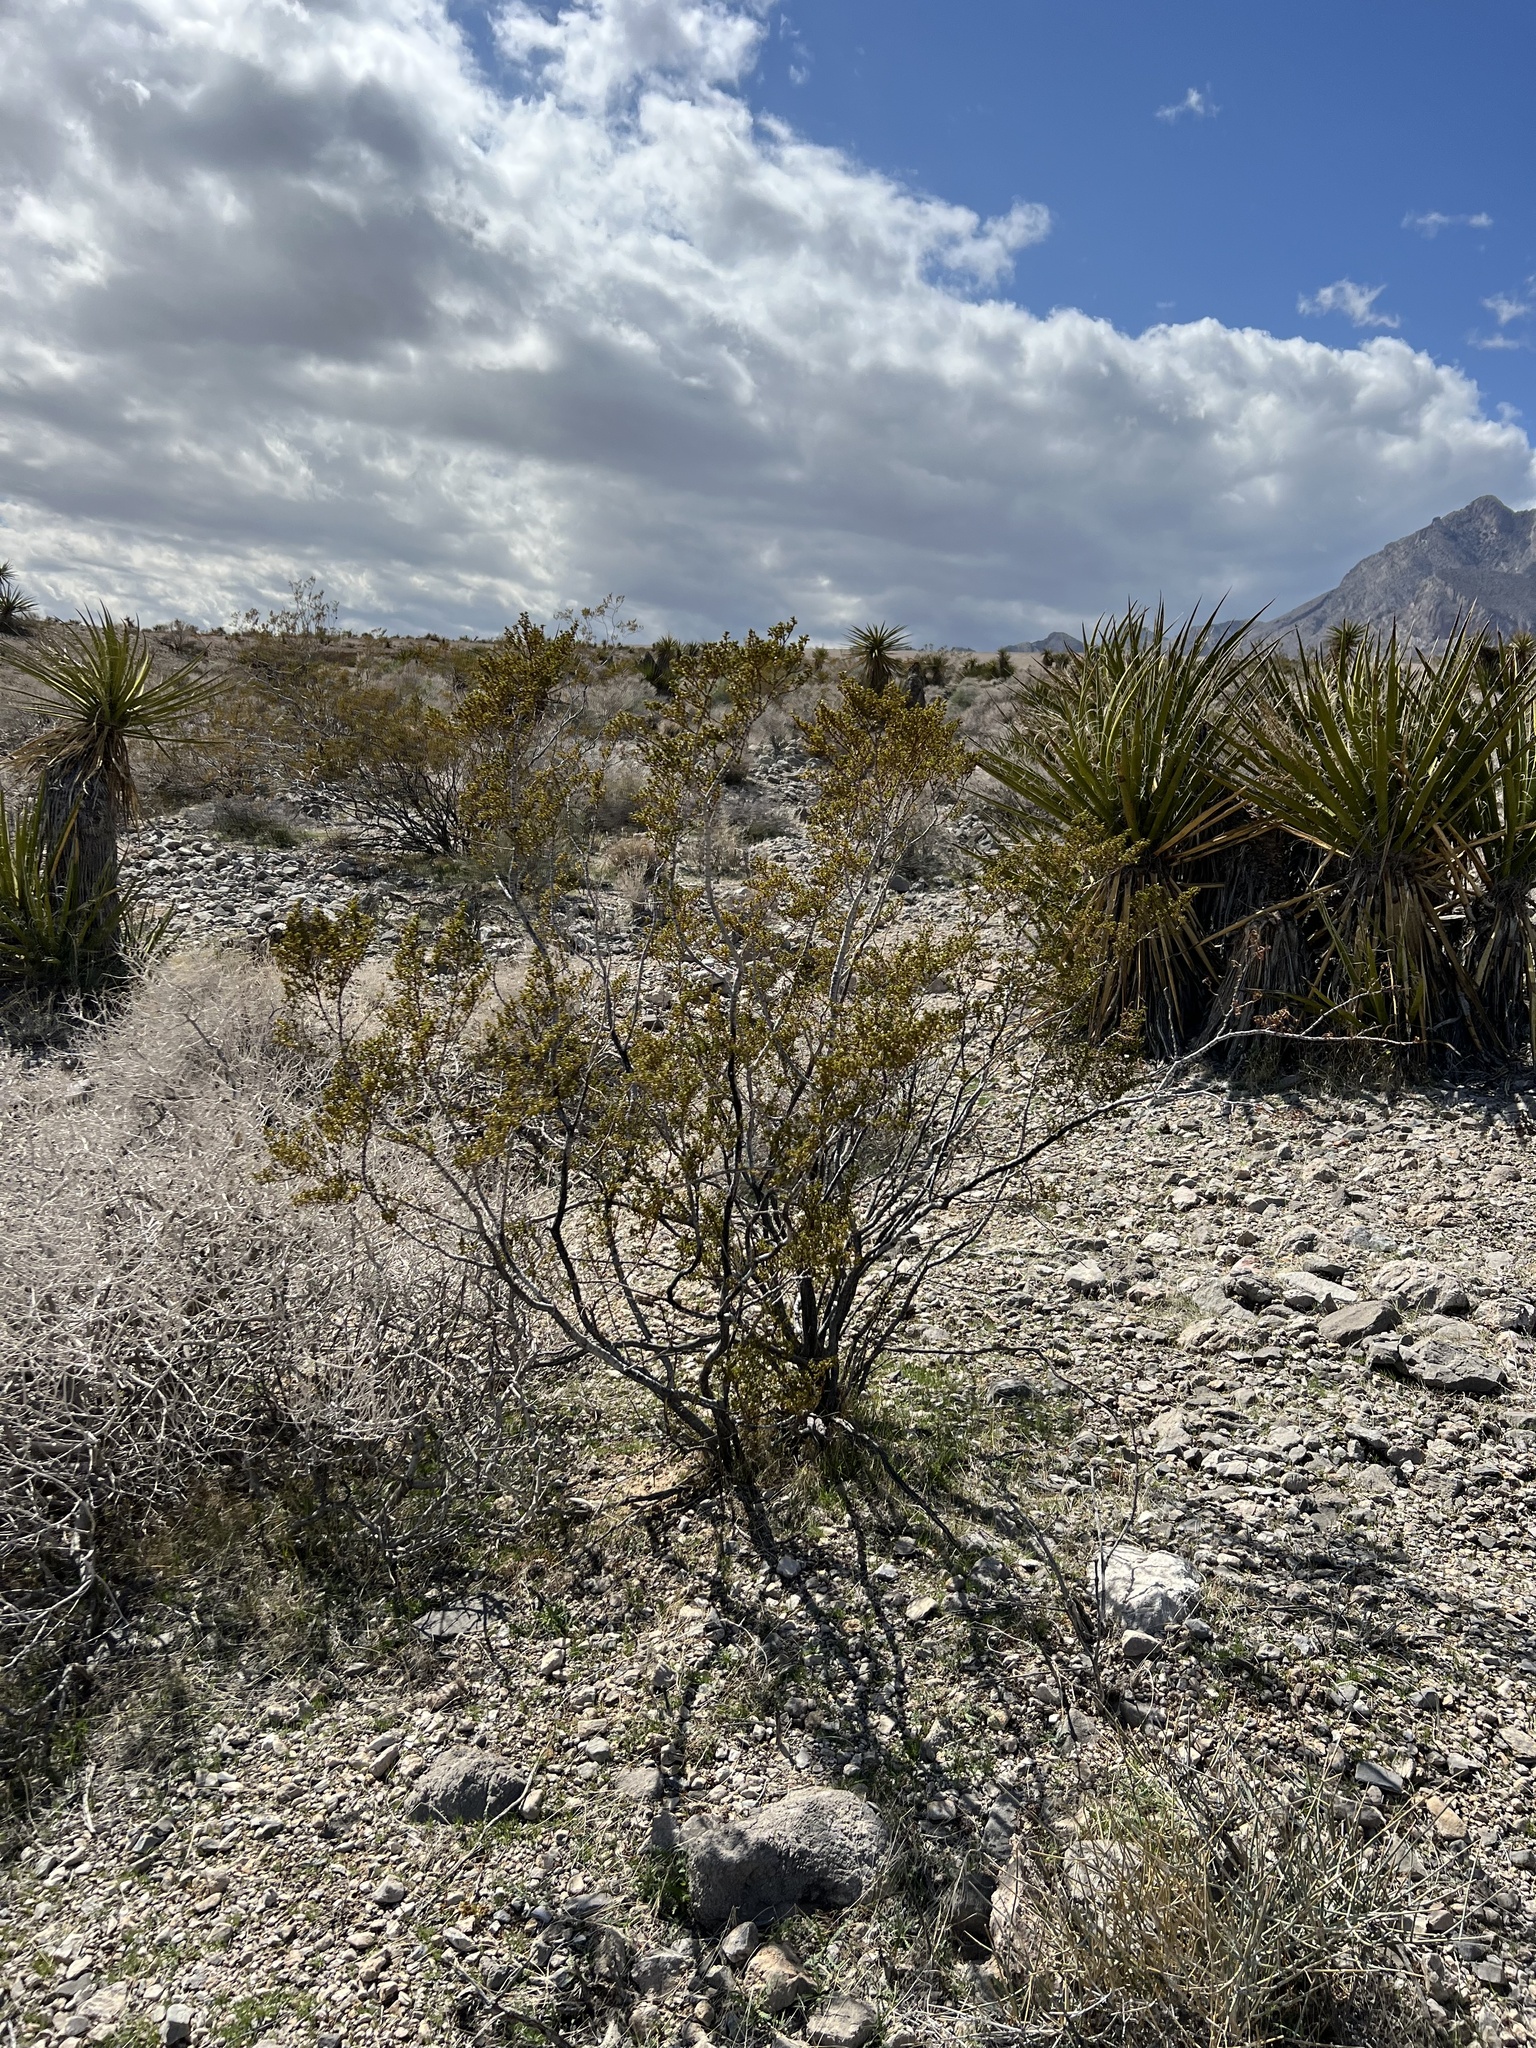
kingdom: Plantae
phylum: Tracheophyta
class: Magnoliopsida
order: Zygophyllales
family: Zygophyllaceae
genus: Larrea
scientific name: Larrea tridentata
